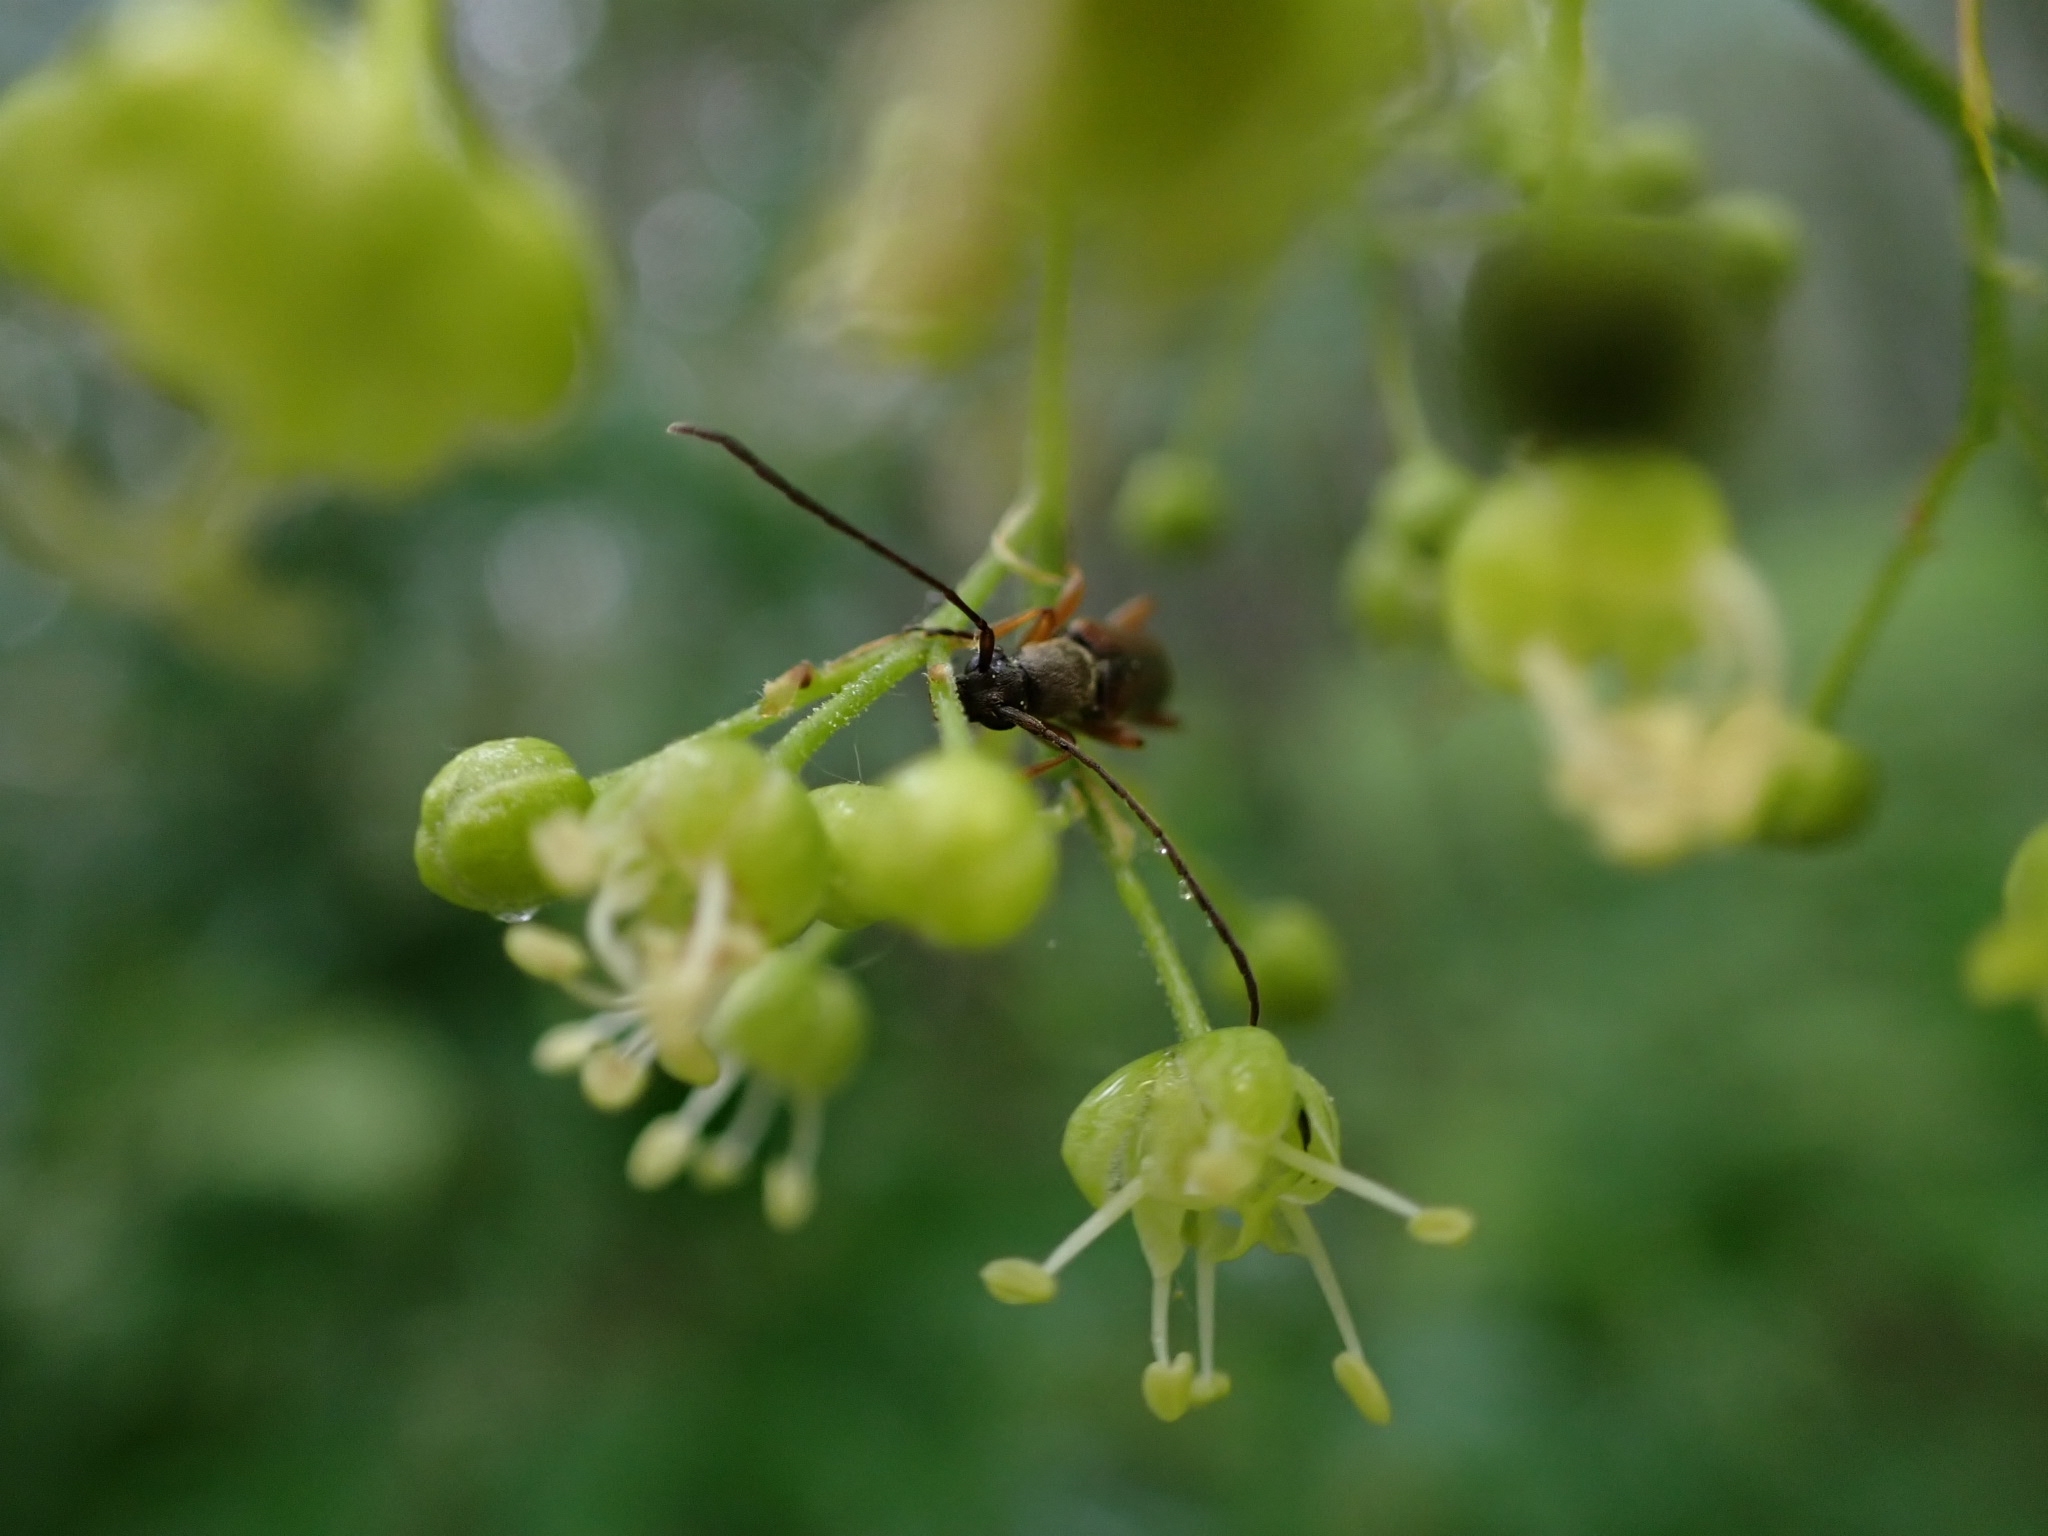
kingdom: Animalia
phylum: Arthropoda
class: Insecta
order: Coleoptera
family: Cerambycidae
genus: Alosterna
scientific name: Alosterna tabacicolor
